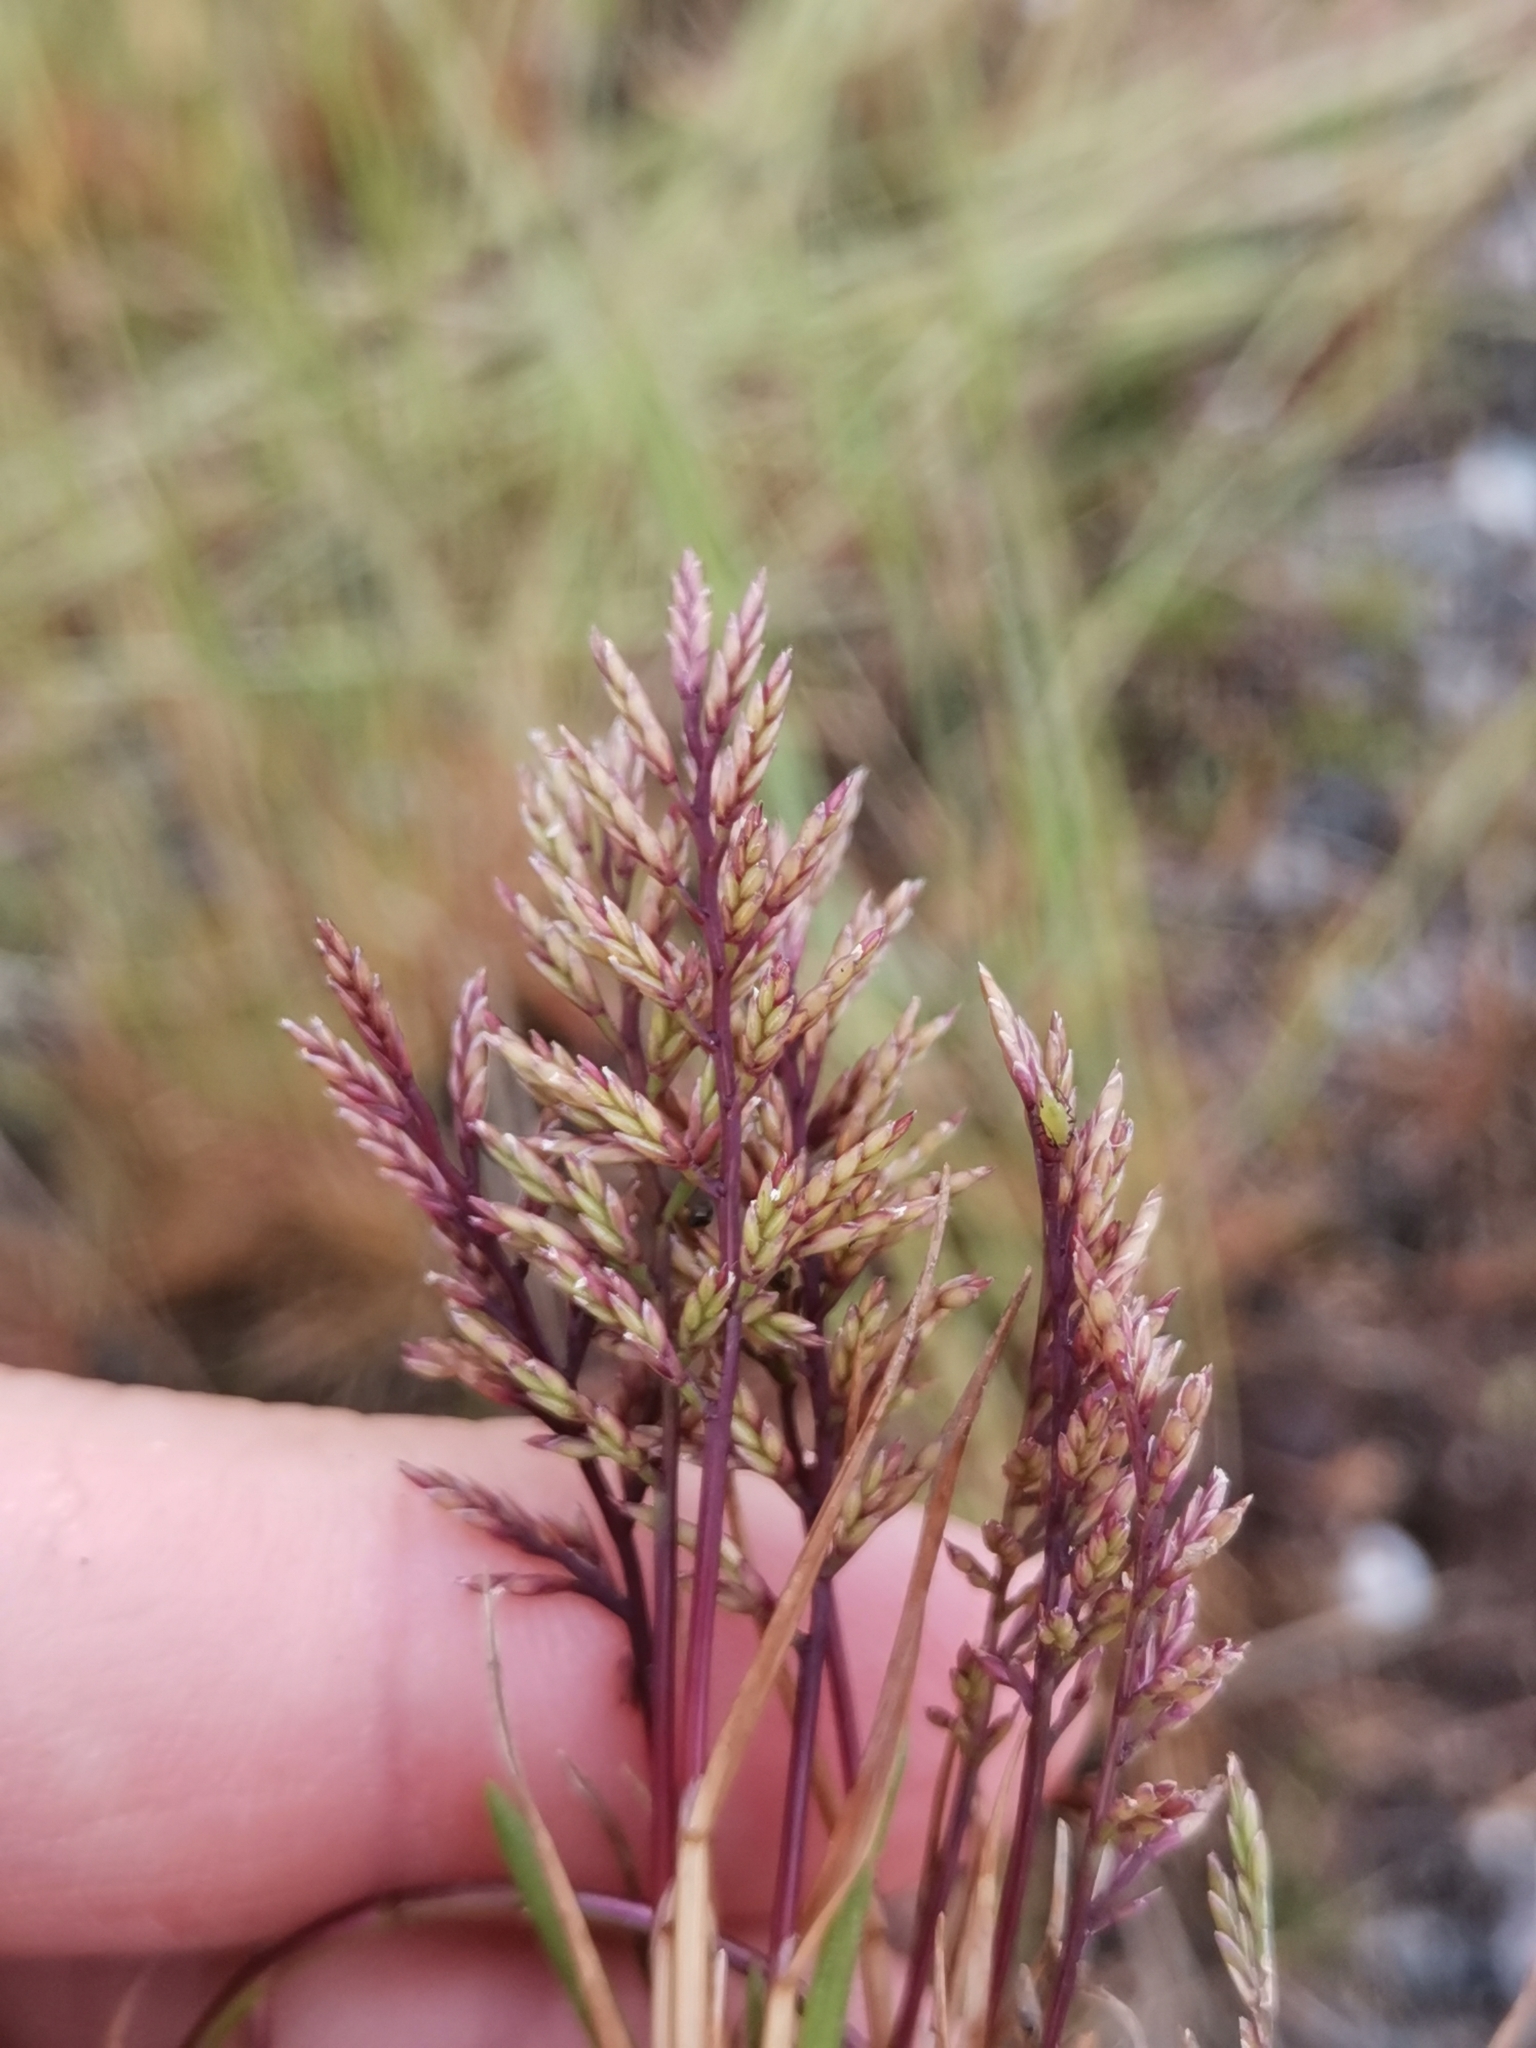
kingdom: Plantae
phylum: Tracheophyta
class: Liliopsida
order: Poales
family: Poaceae
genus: Catapodium
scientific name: Catapodium rigidum
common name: Fern-grass
